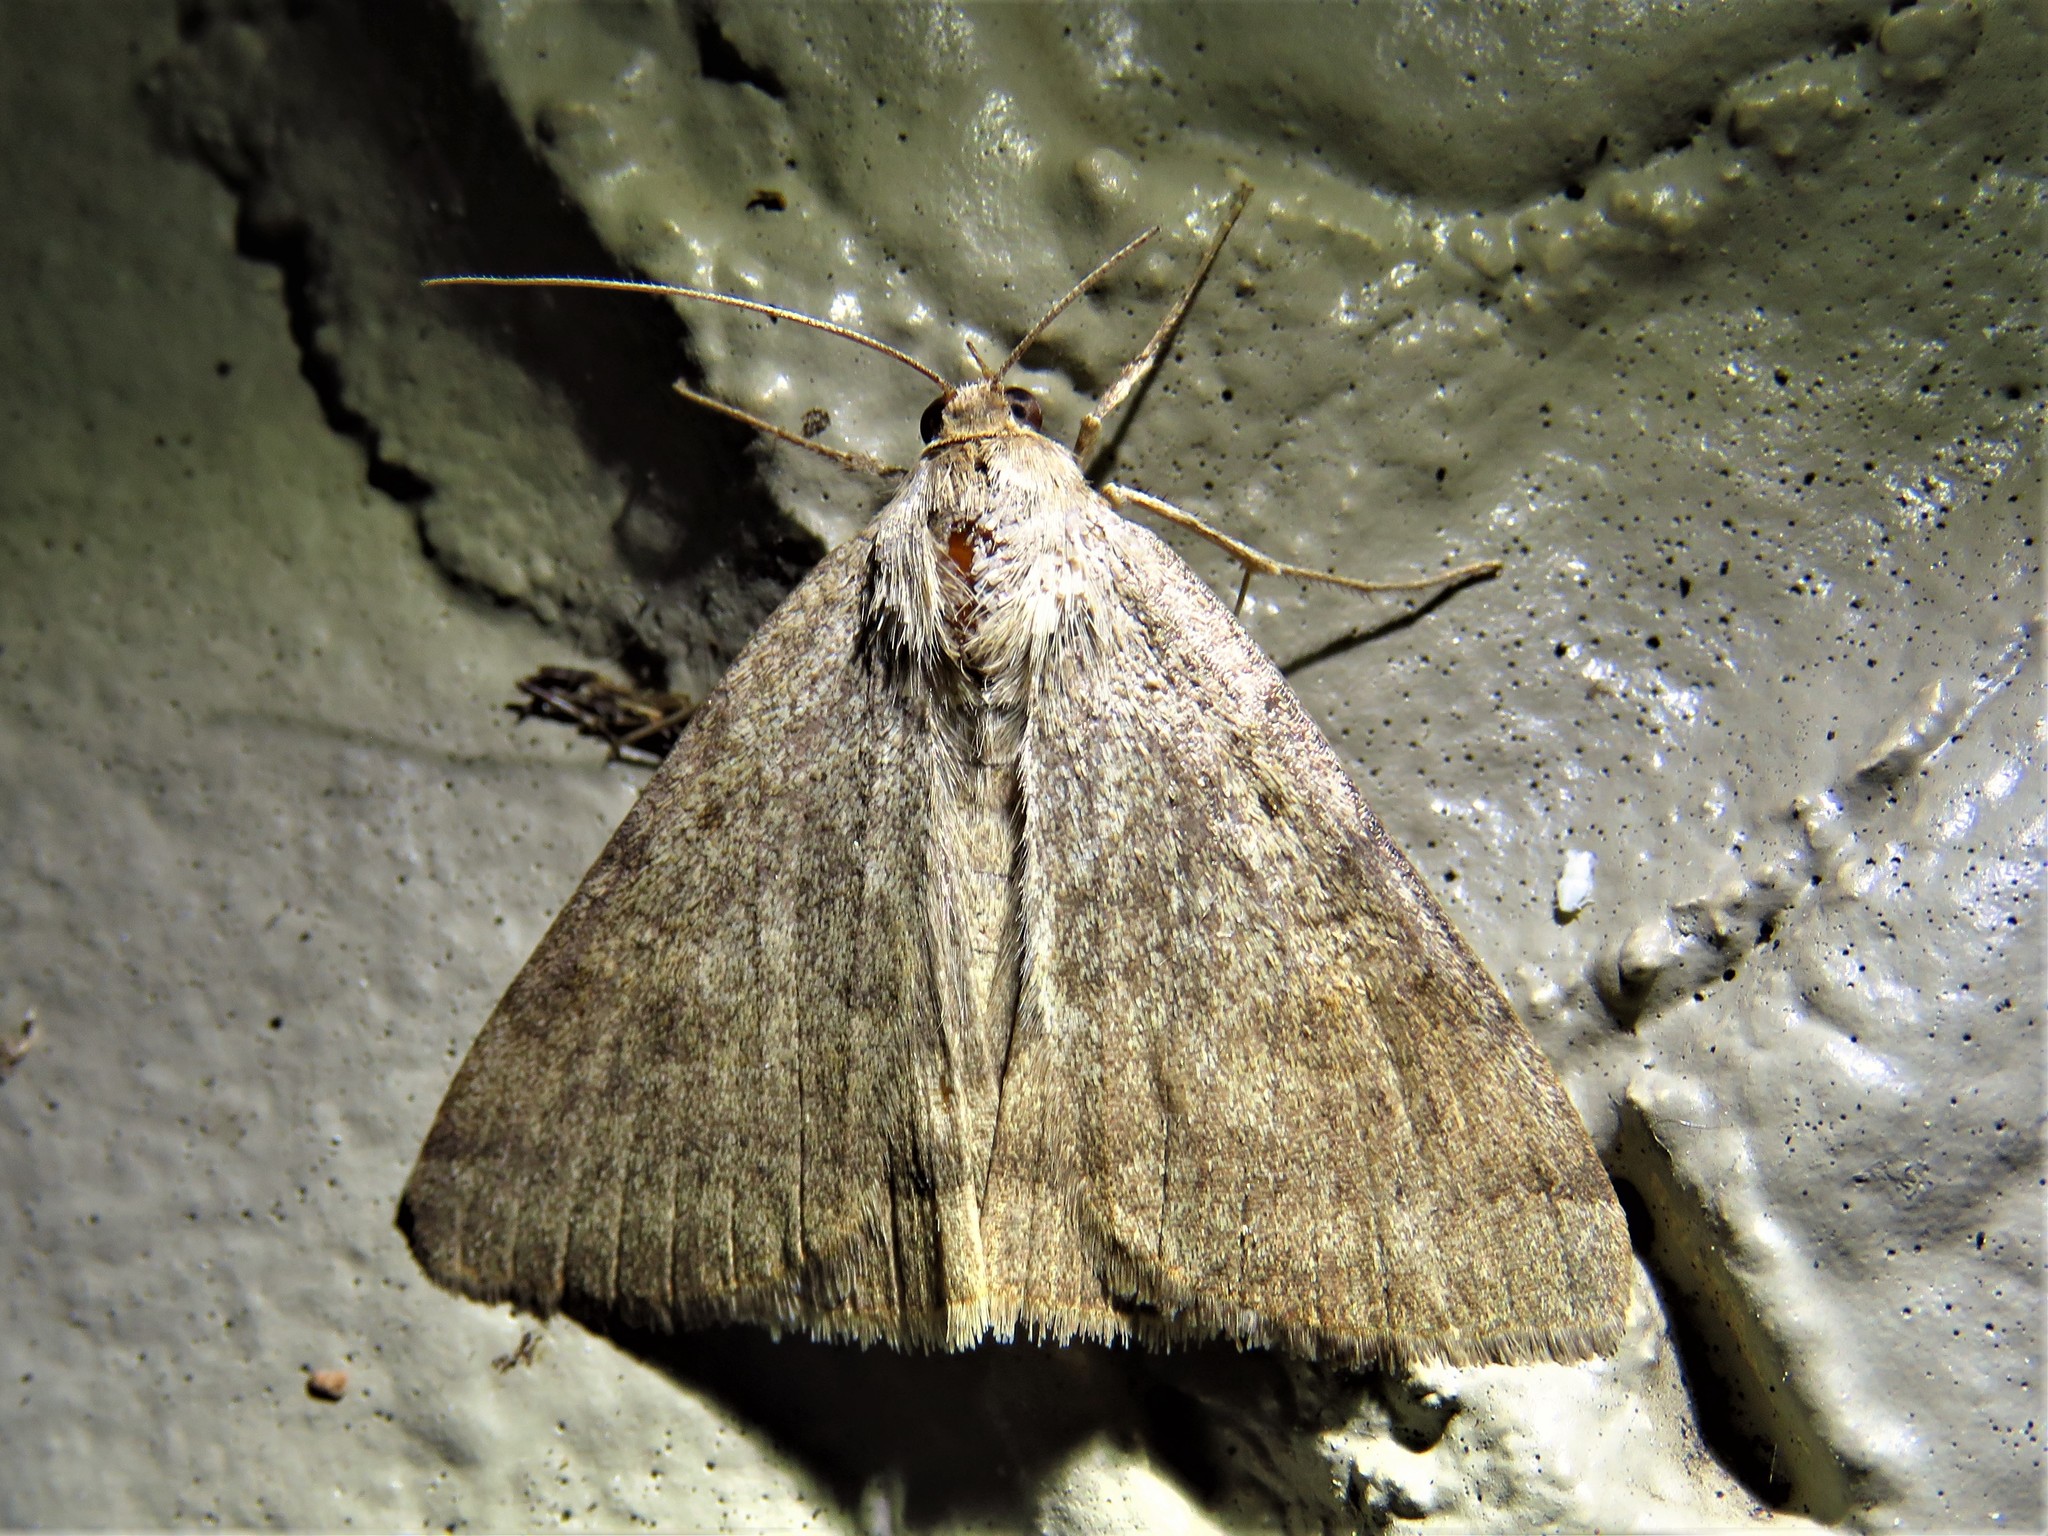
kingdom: Animalia
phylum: Arthropoda
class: Insecta
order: Lepidoptera
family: Erebidae
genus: Caenurgina
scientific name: Caenurgina erechtea
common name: Forage looper moth
